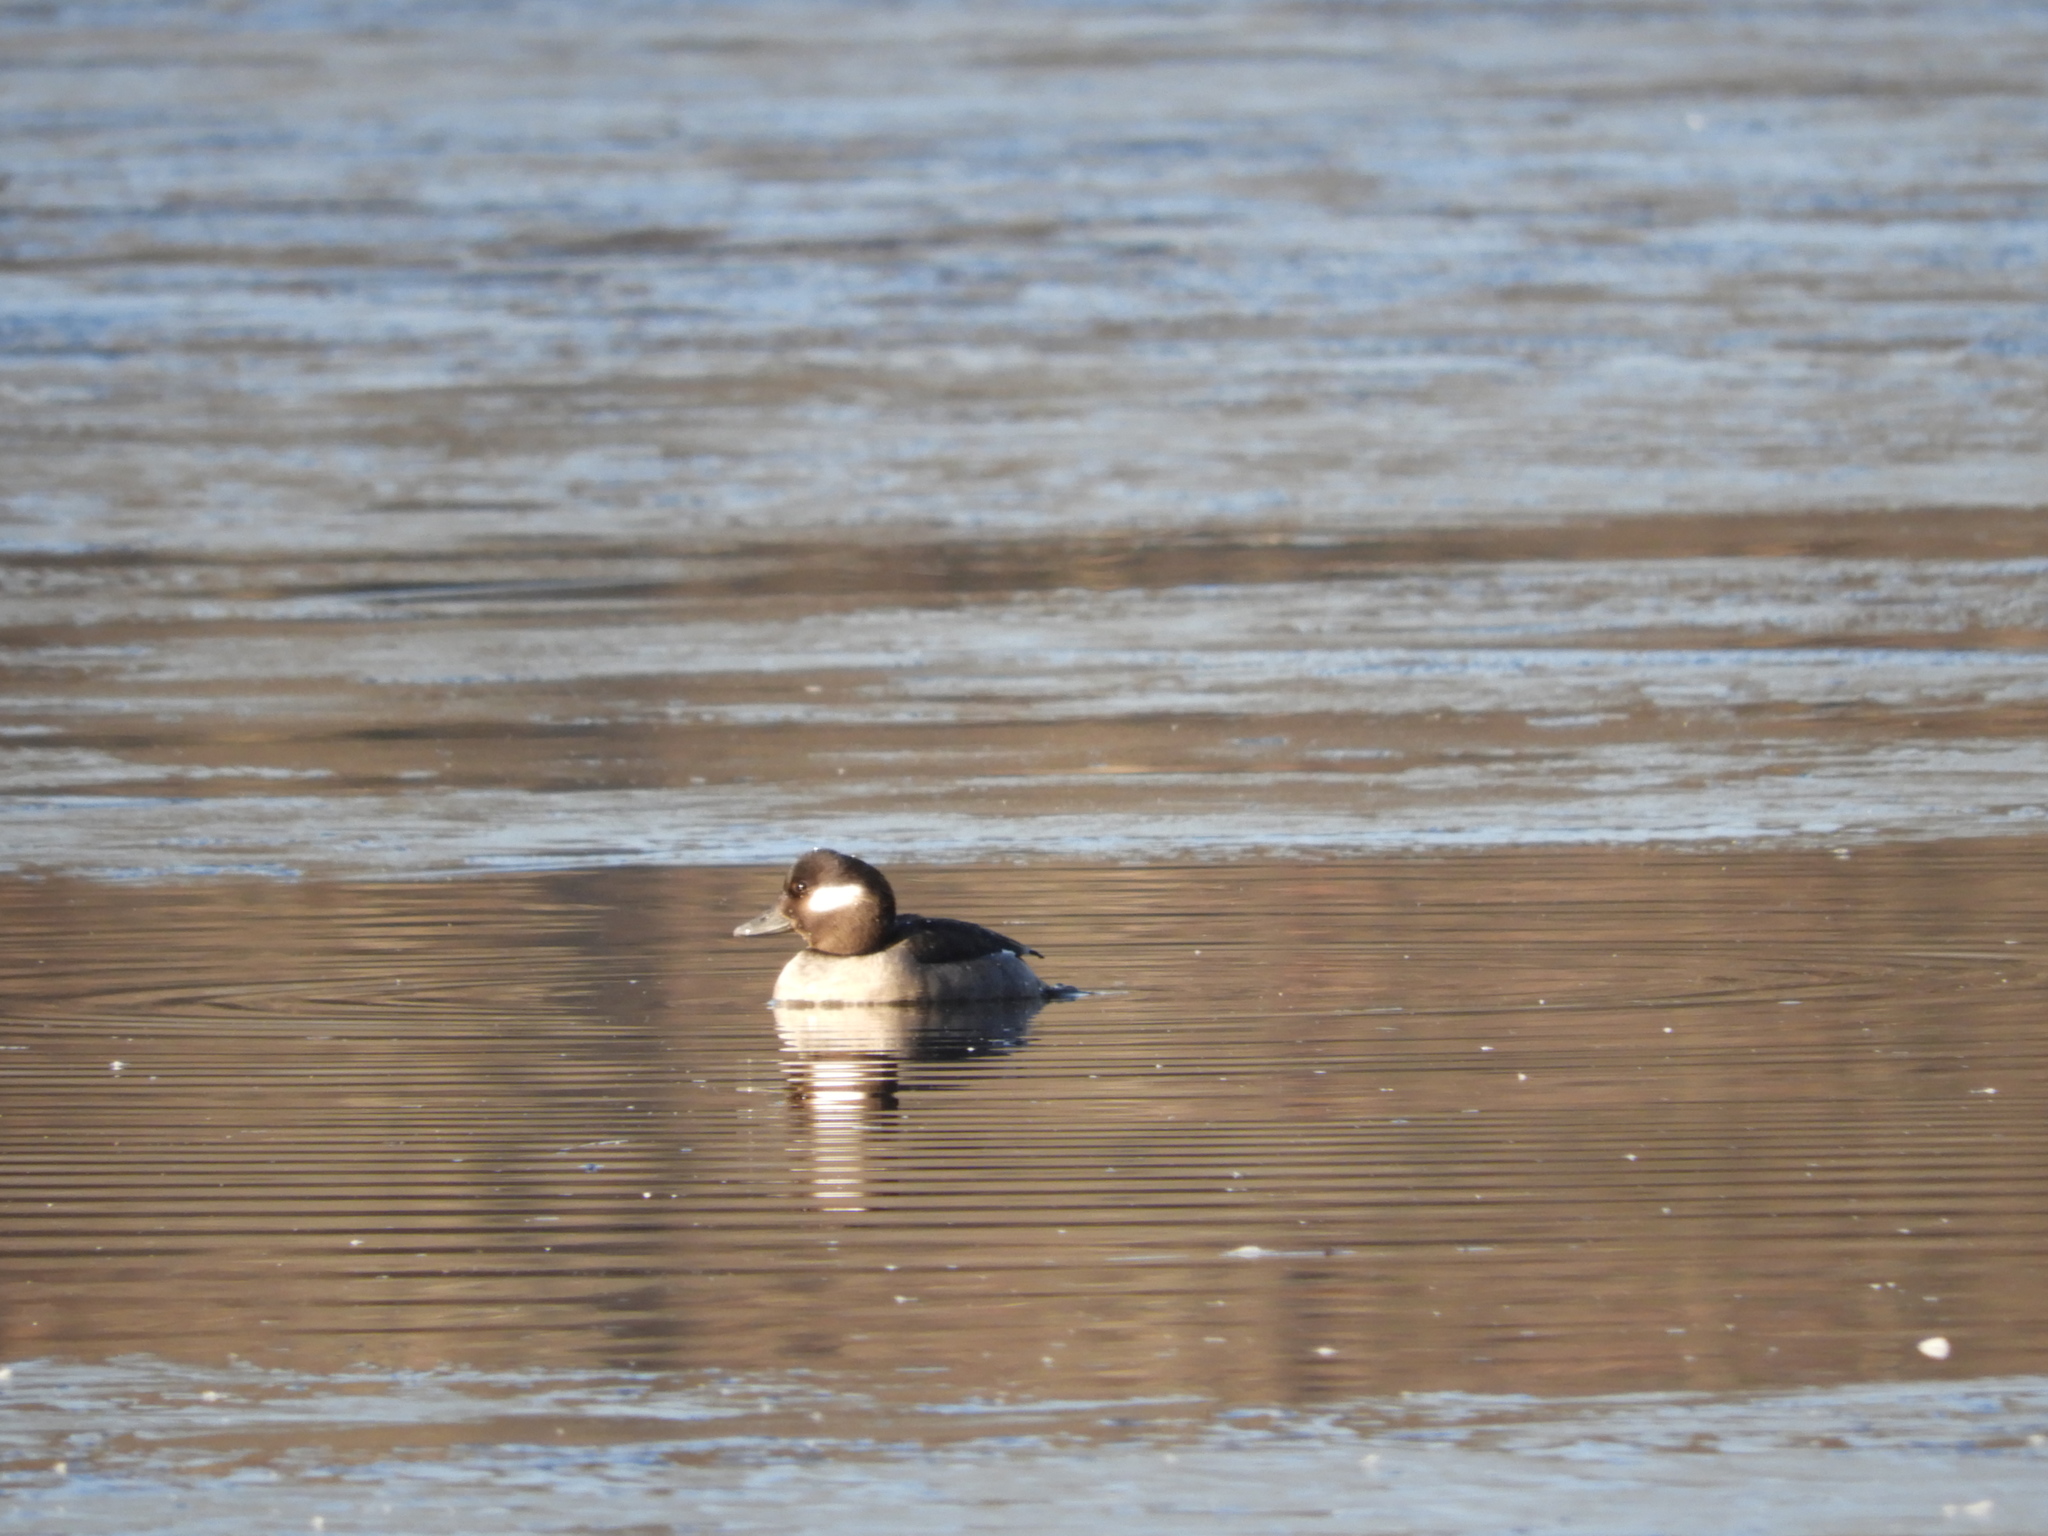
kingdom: Animalia
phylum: Chordata
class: Aves
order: Anseriformes
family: Anatidae
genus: Bucephala
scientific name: Bucephala albeola
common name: Bufflehead
